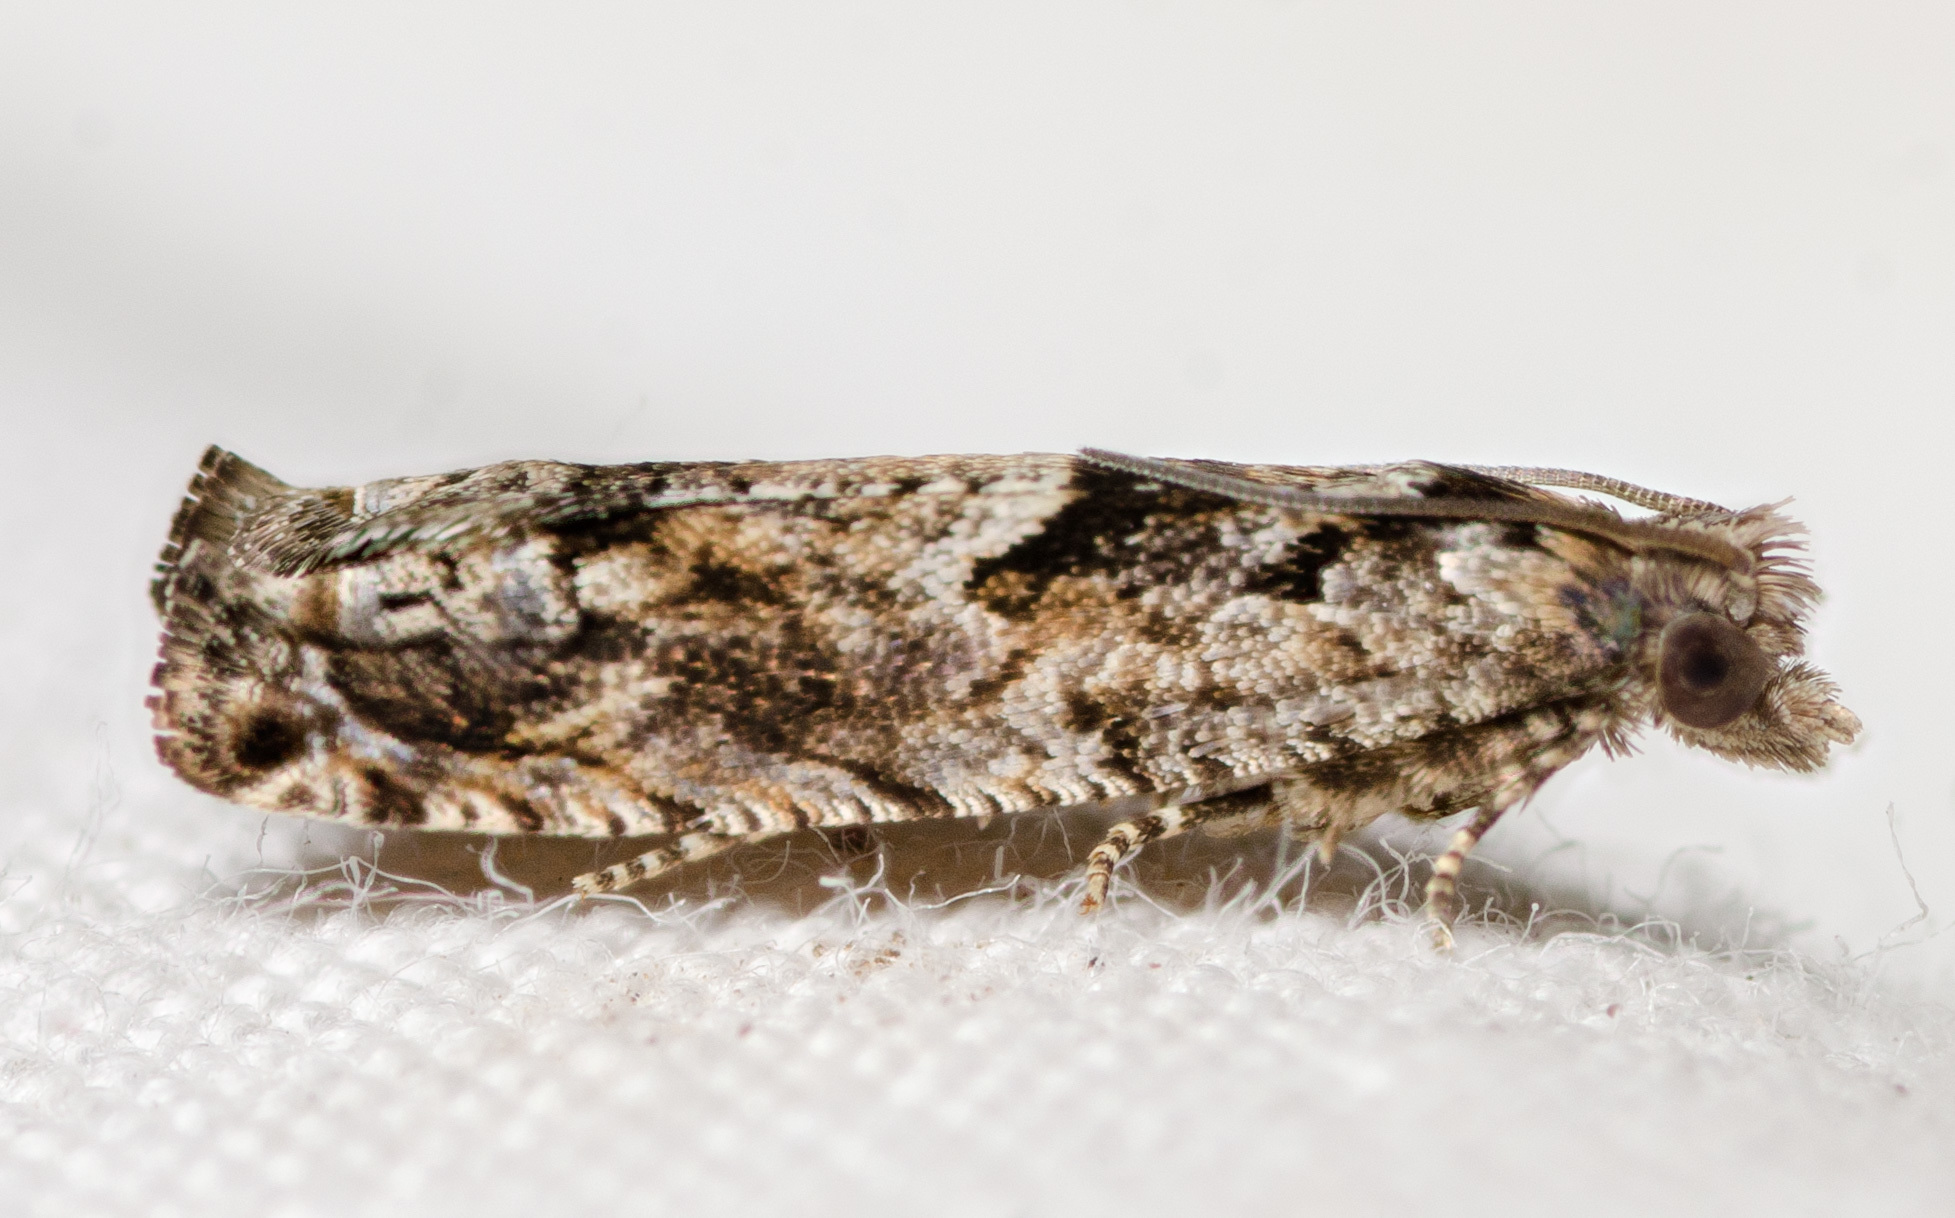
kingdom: Animalia
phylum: Arthropoda
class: Insecta
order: Lepidoptera
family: Tortricidae
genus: Pseudexentera
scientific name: Pseudexentera hodsoni
